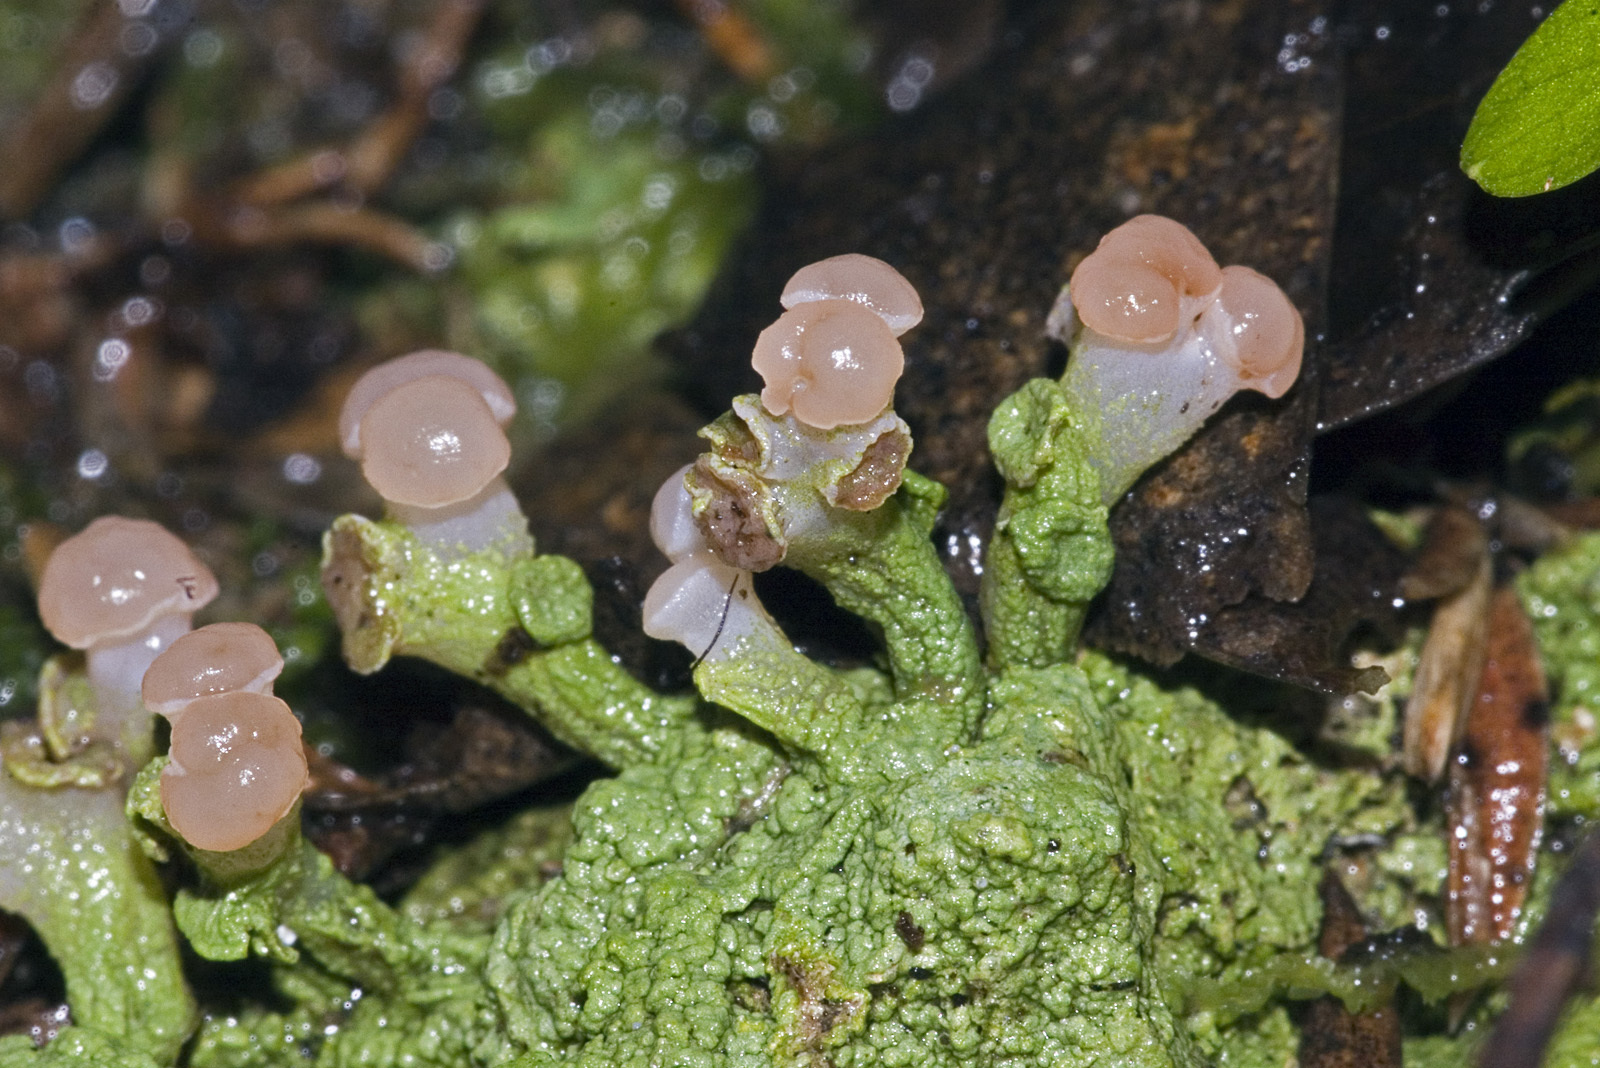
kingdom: Fungi
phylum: Ascomycota
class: Lecanoromycetes
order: Baeomycetales
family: Baeomycetaceae
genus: Baeomyces
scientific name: Baeomyces heteromorphus
